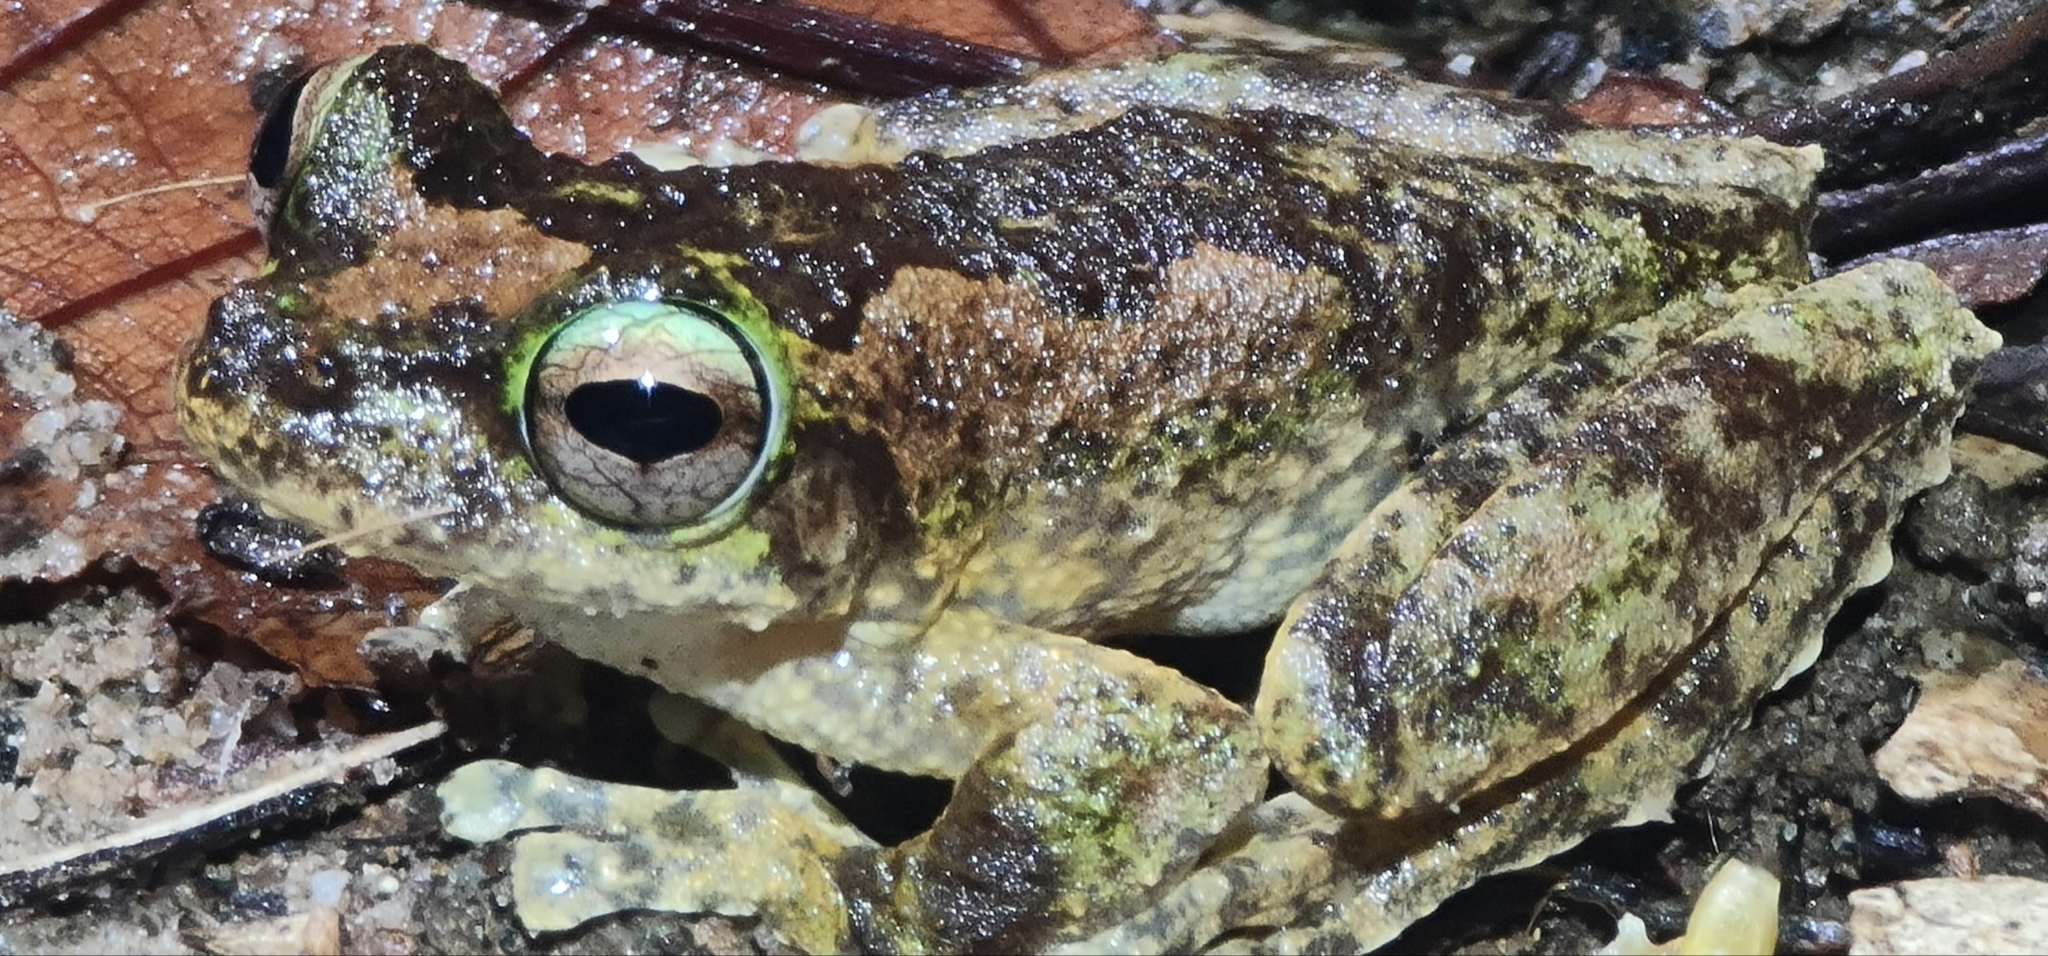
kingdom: Animalia
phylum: Chordata
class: Amphibia
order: Anura
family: Pelodryadidae
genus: Ranoidea
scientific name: Ranoidea serrata
